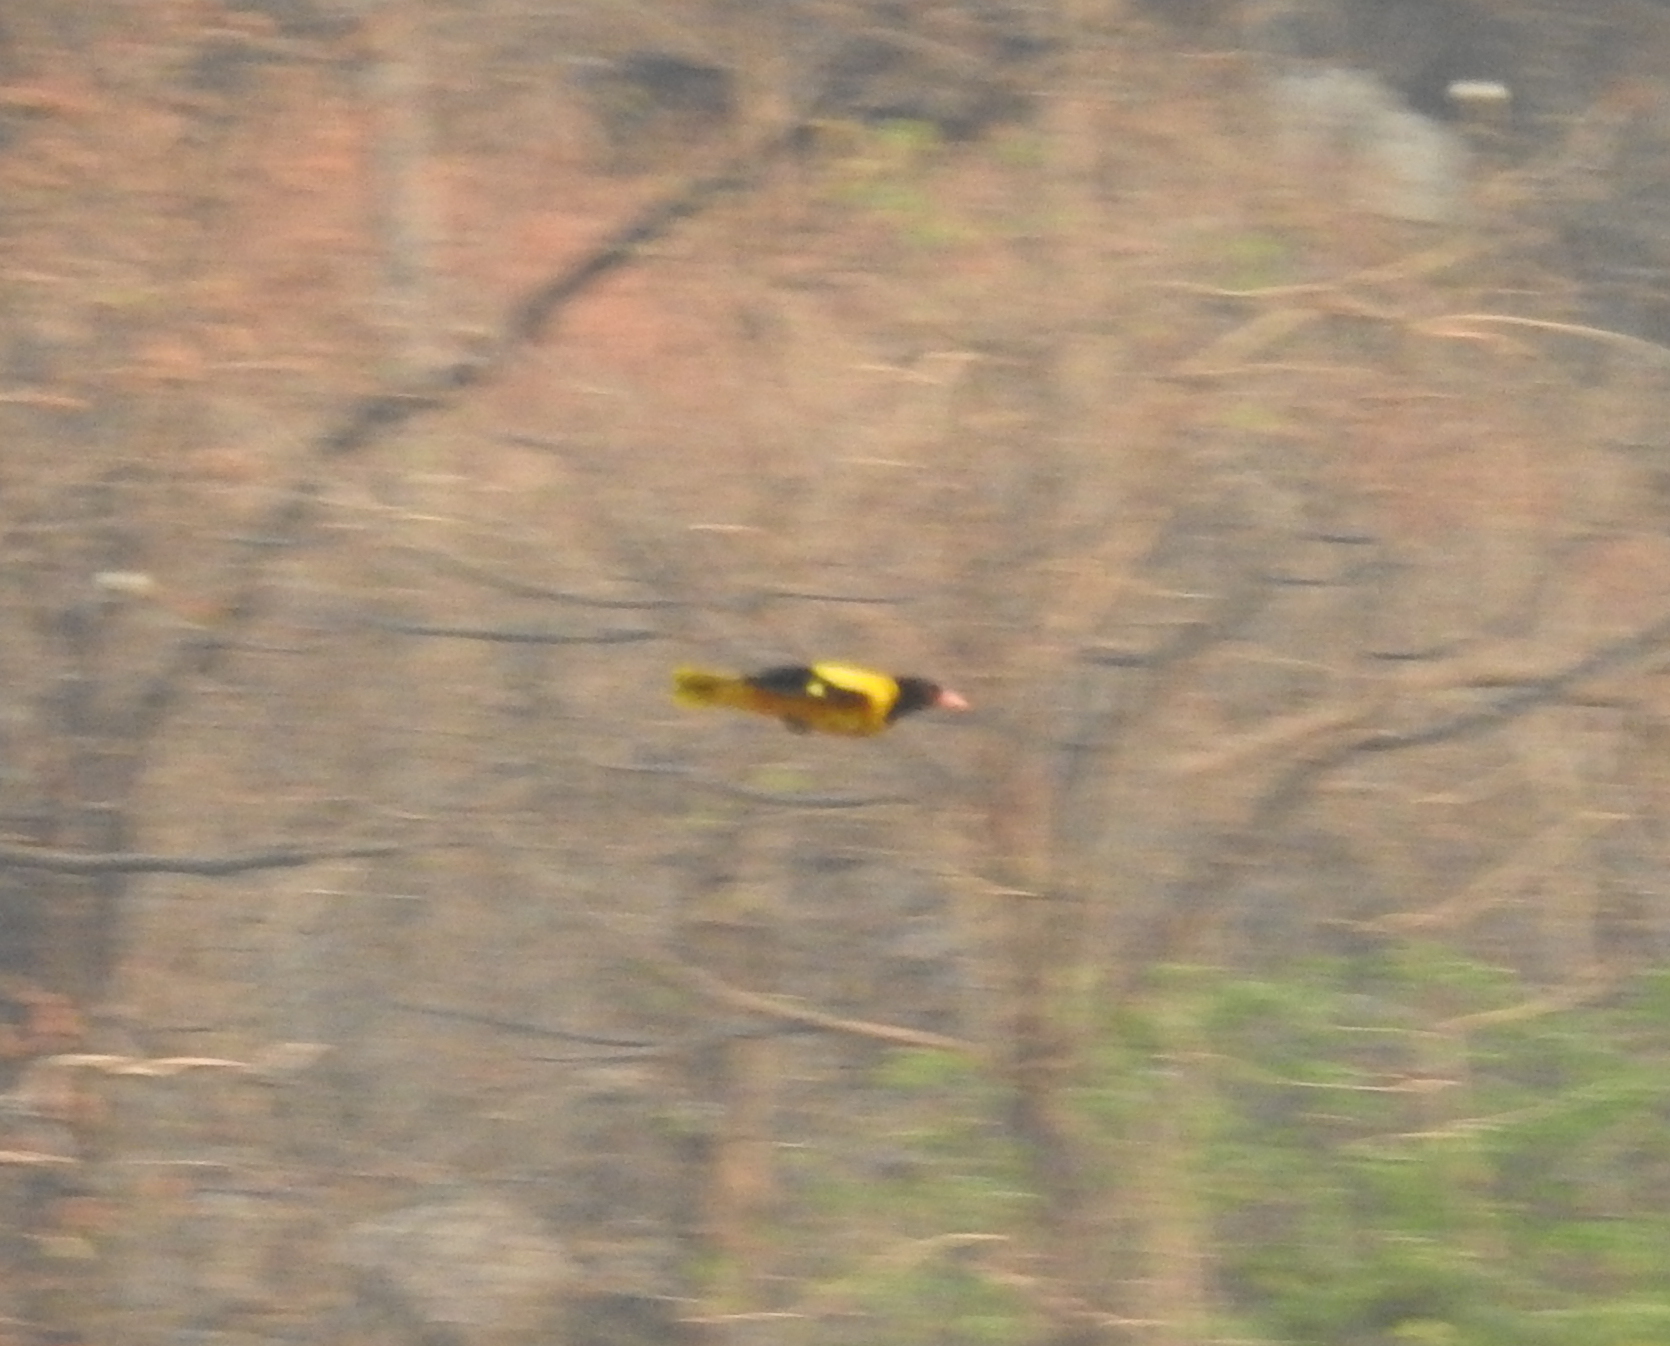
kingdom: Animalia
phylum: Chordata
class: Aves
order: Passeriformes
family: Oriolidae
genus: Oriolus
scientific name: Oriolus xanthornus
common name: Black-hooded oriole
